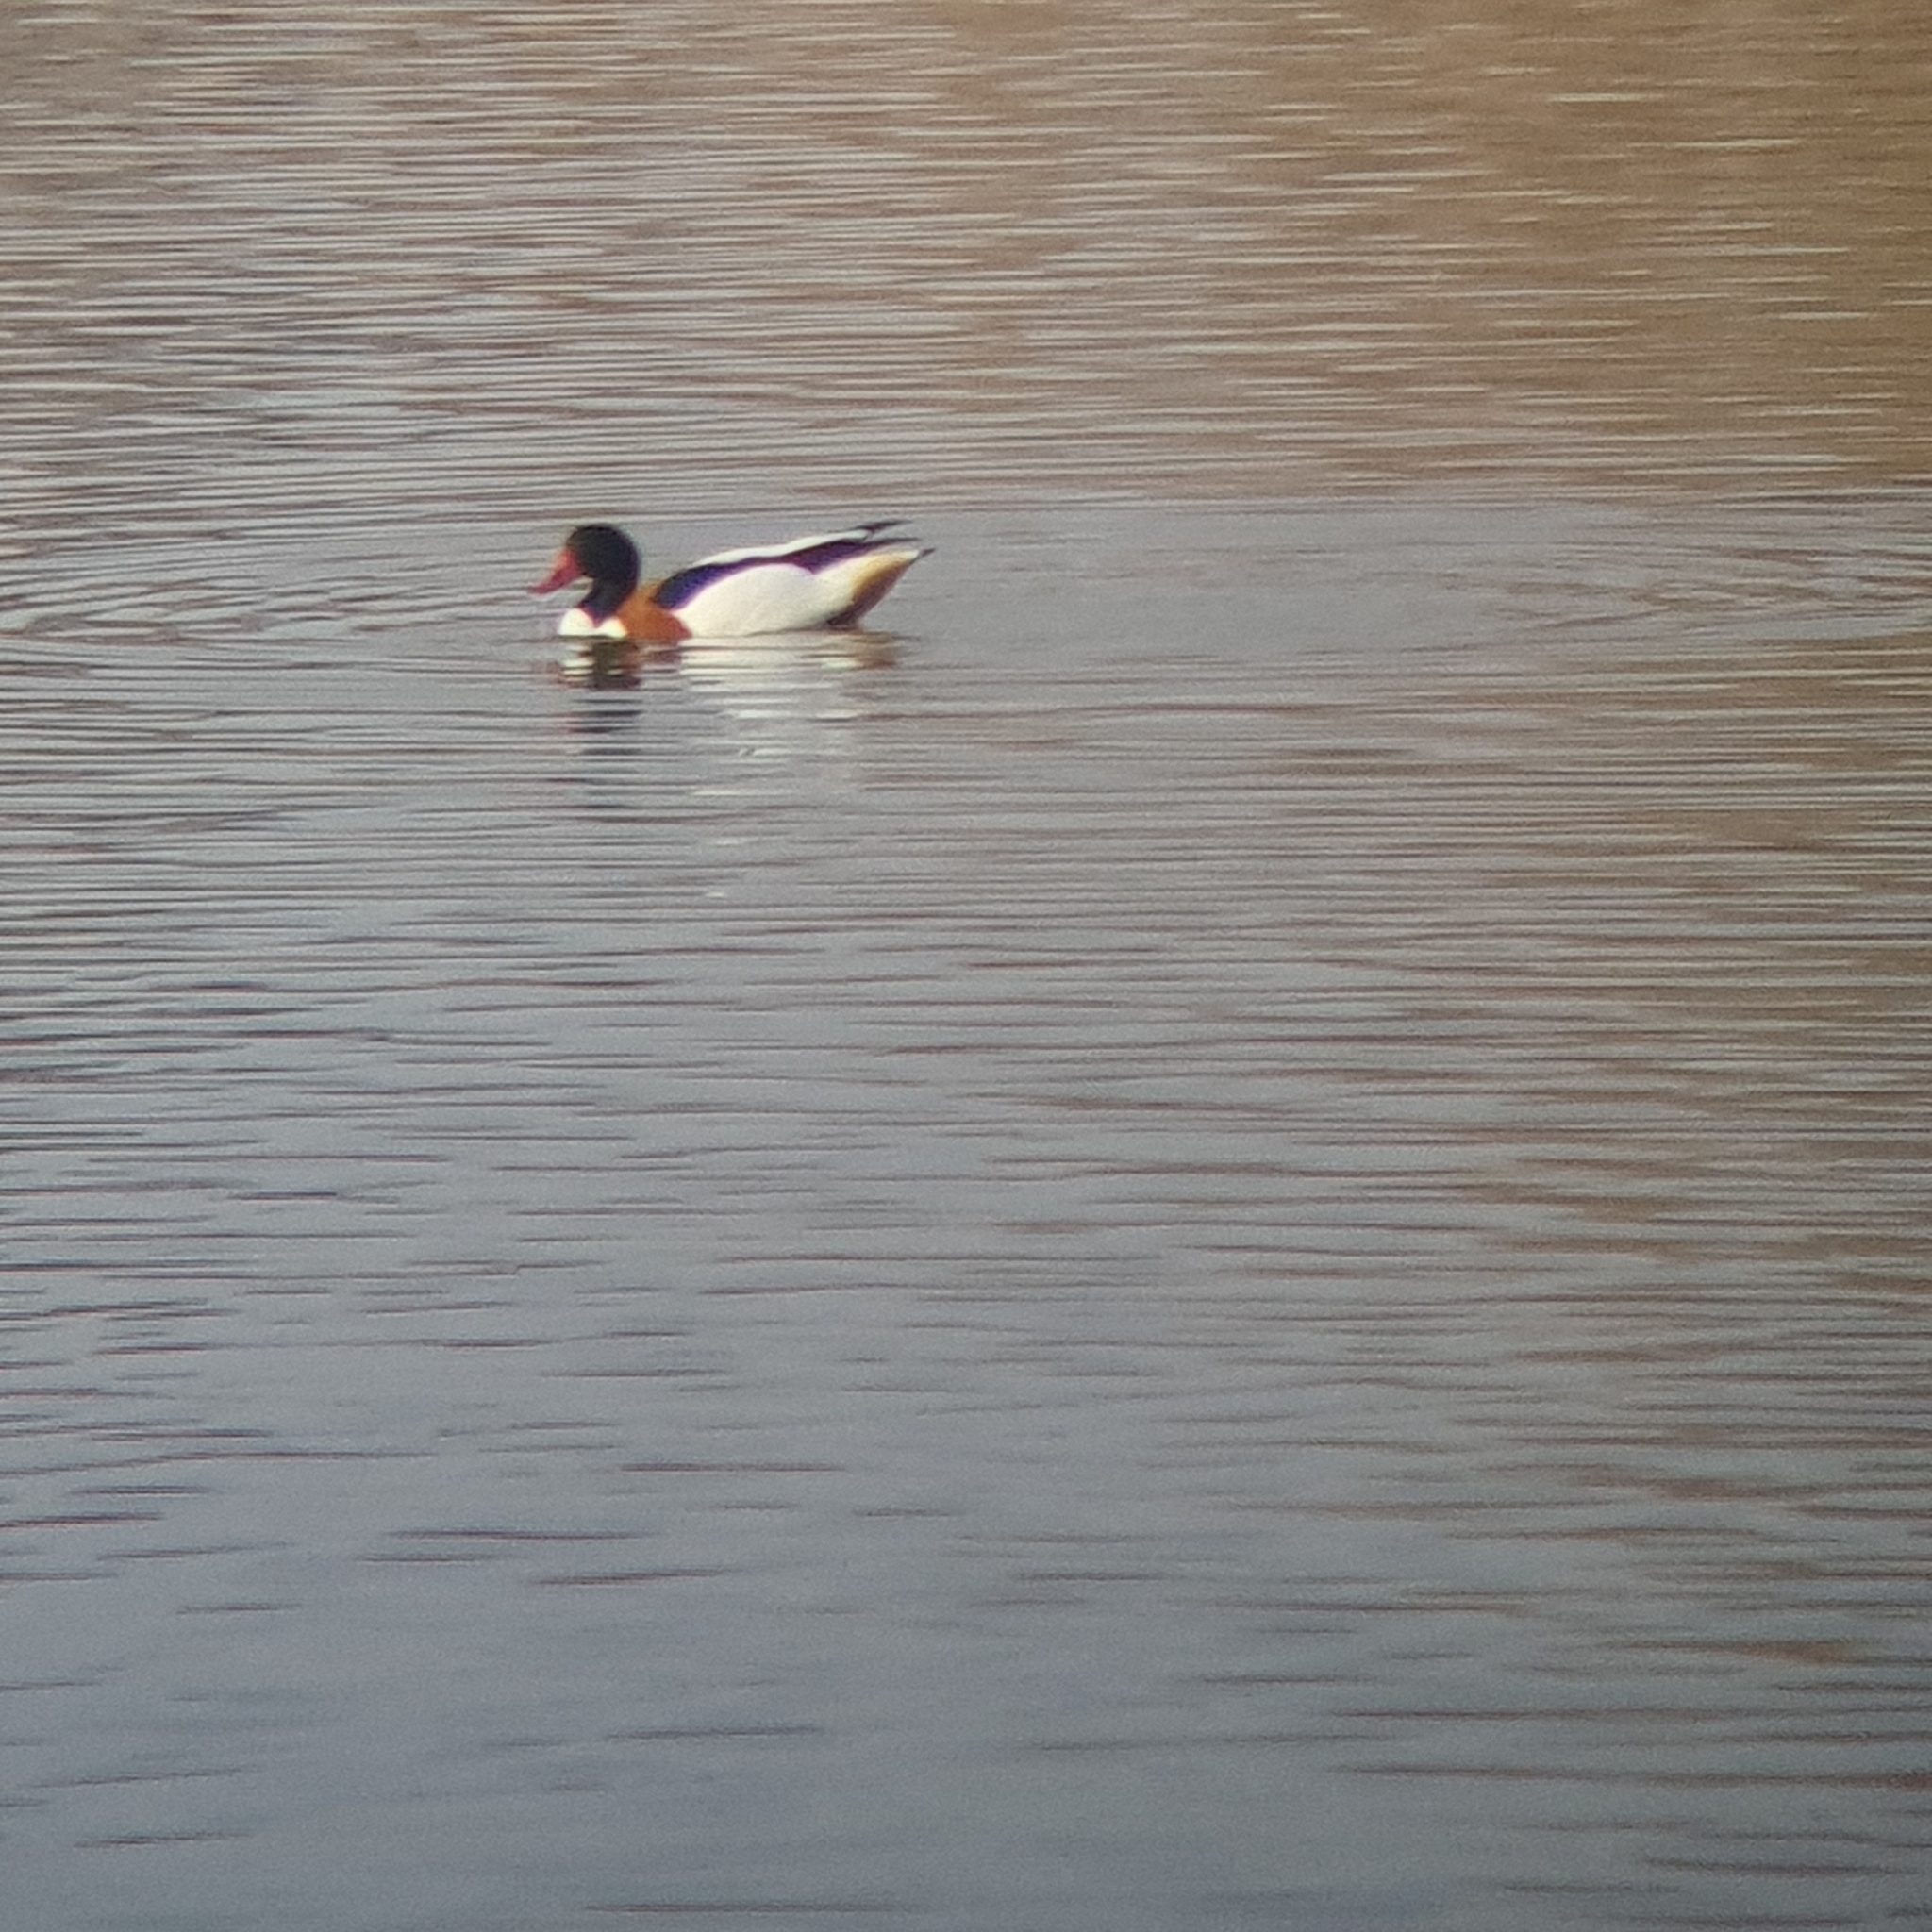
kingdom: Animalia
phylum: Chordata
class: Aves
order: Anseriformes
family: Anatidae
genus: Tadorna
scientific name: Tadorna tadorna
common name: Common shelduck
